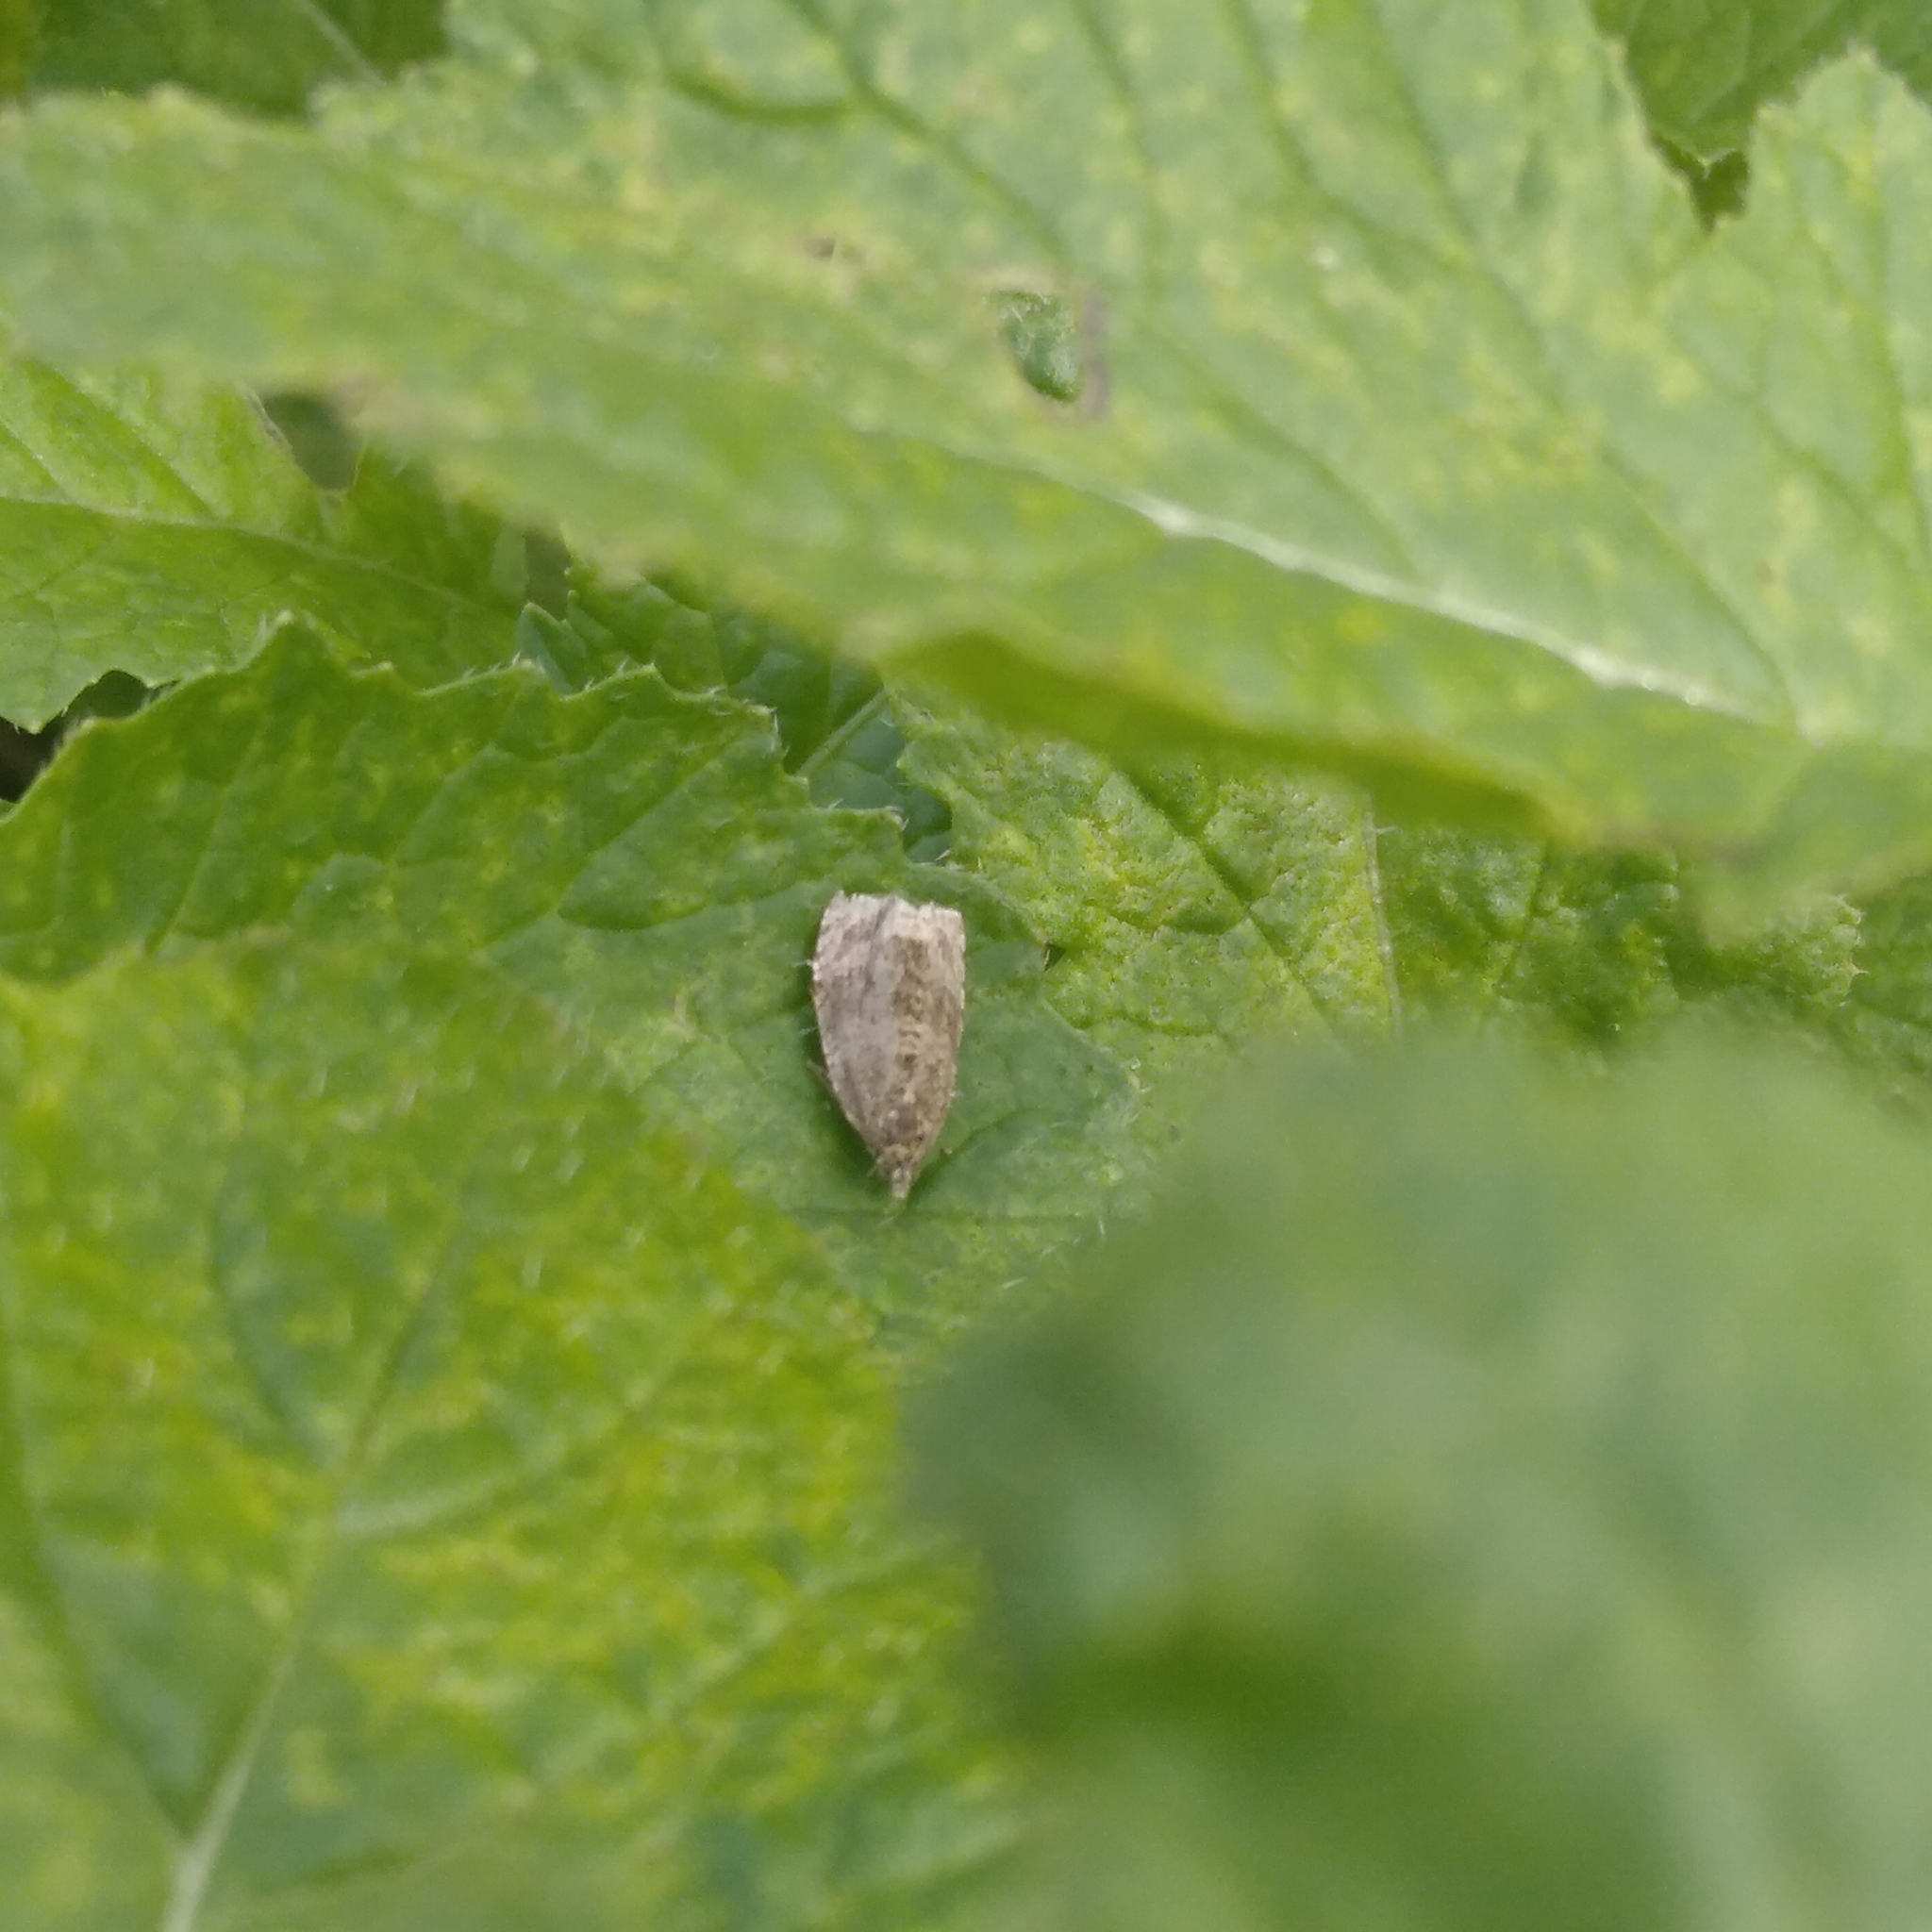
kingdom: Animalia
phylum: Arthropoda
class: Insecta
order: Lepidoptera
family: Tortricidae
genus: Syricoris
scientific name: Syricoris lacunana
